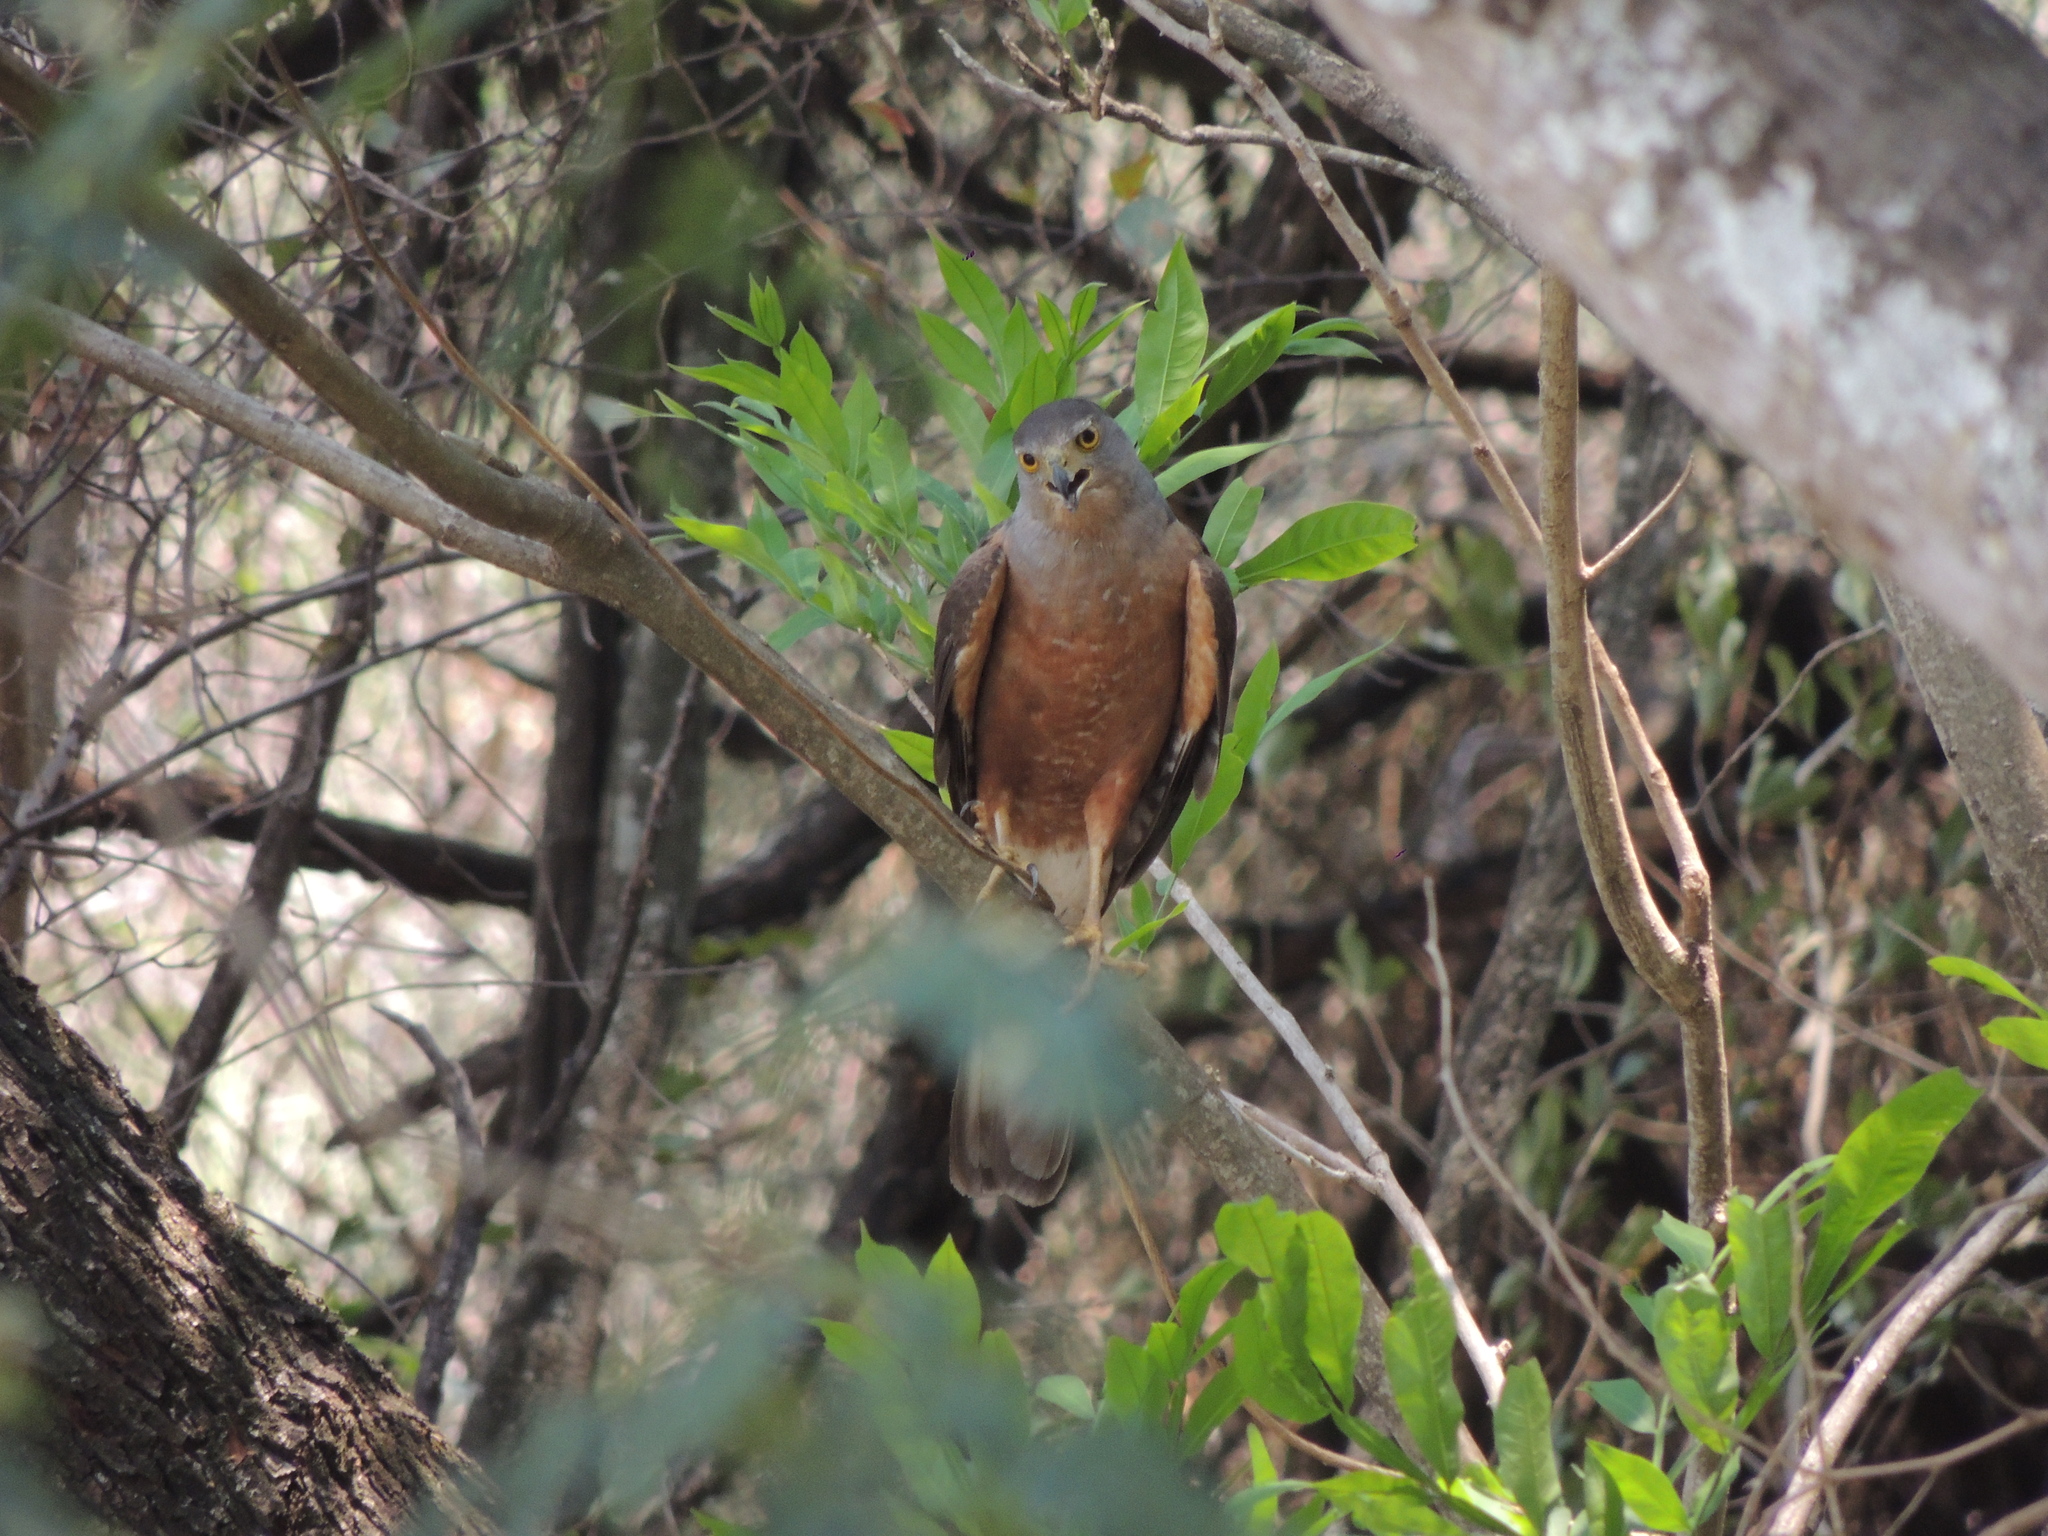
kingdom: Animalia
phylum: Chordata
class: Aves
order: Accipitriformes
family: Accipitridae
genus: Accipiter
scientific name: Accipiter bicolor
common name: Bicolored hawk
